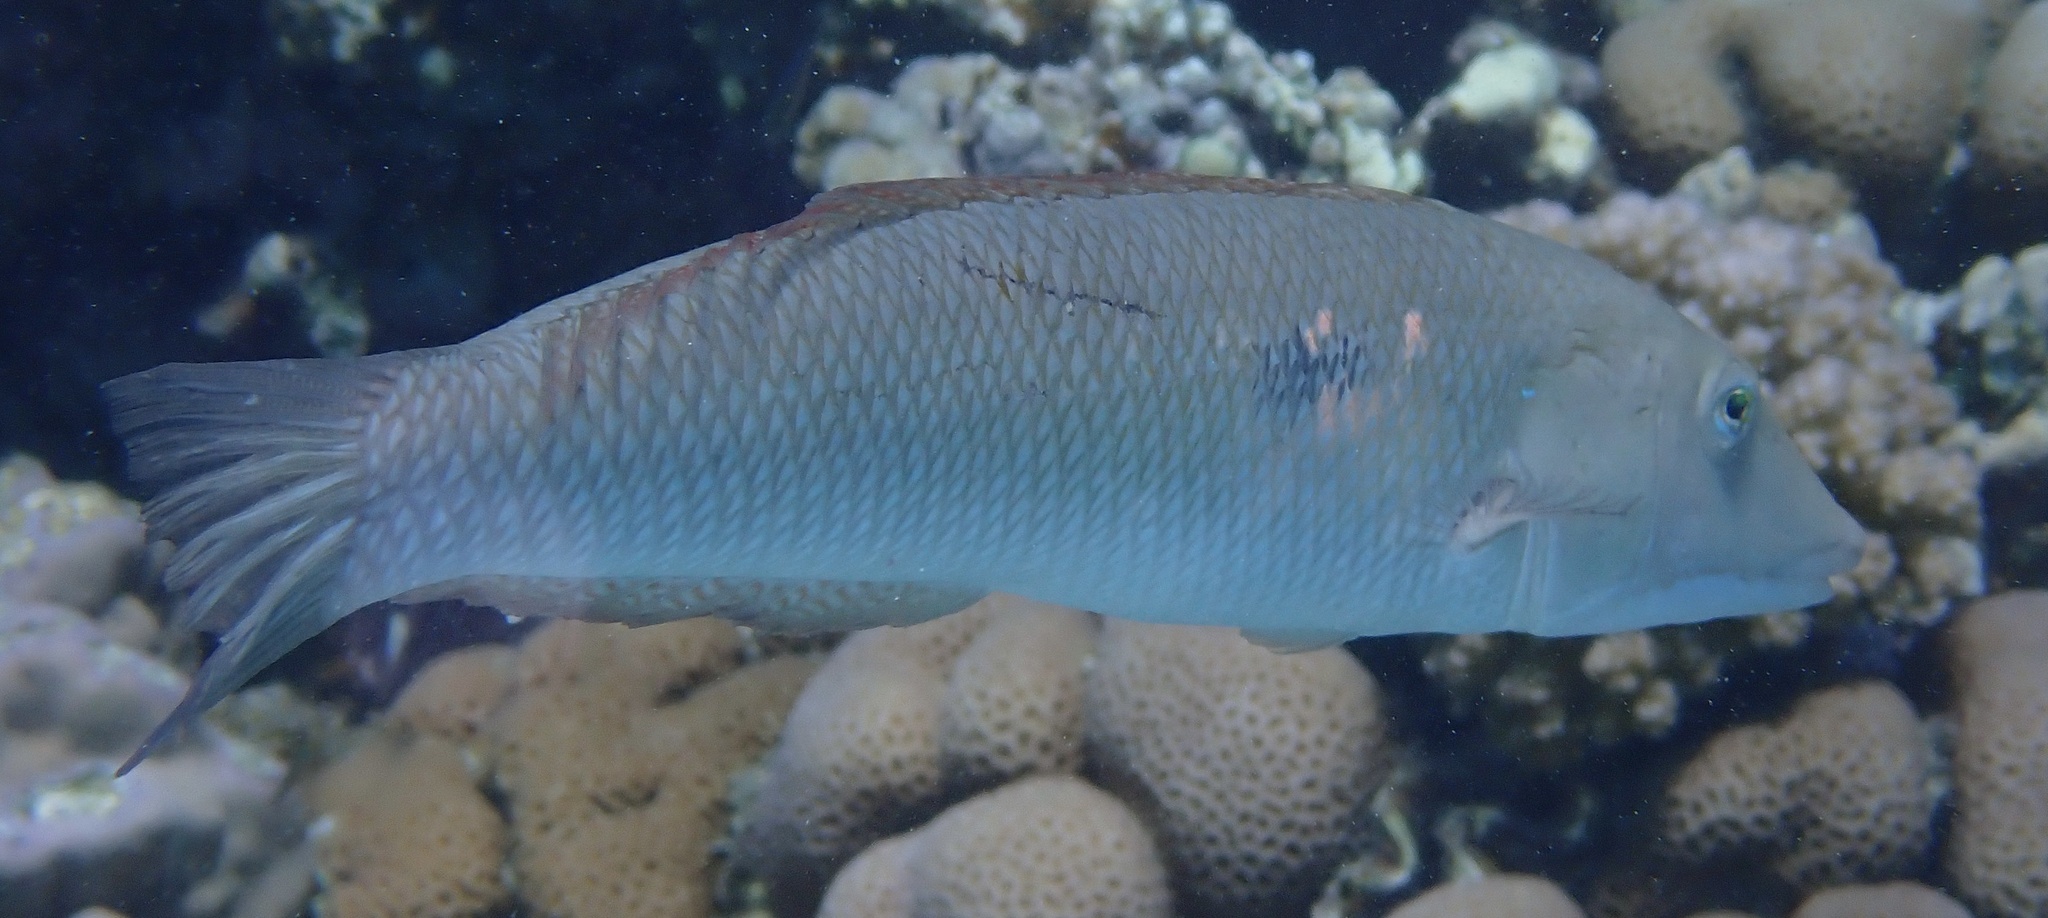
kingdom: Animalia
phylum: Chordata
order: Perciformes
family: Labridae
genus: Cheilio
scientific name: Cheilio inermis
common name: Cigar wrasse
